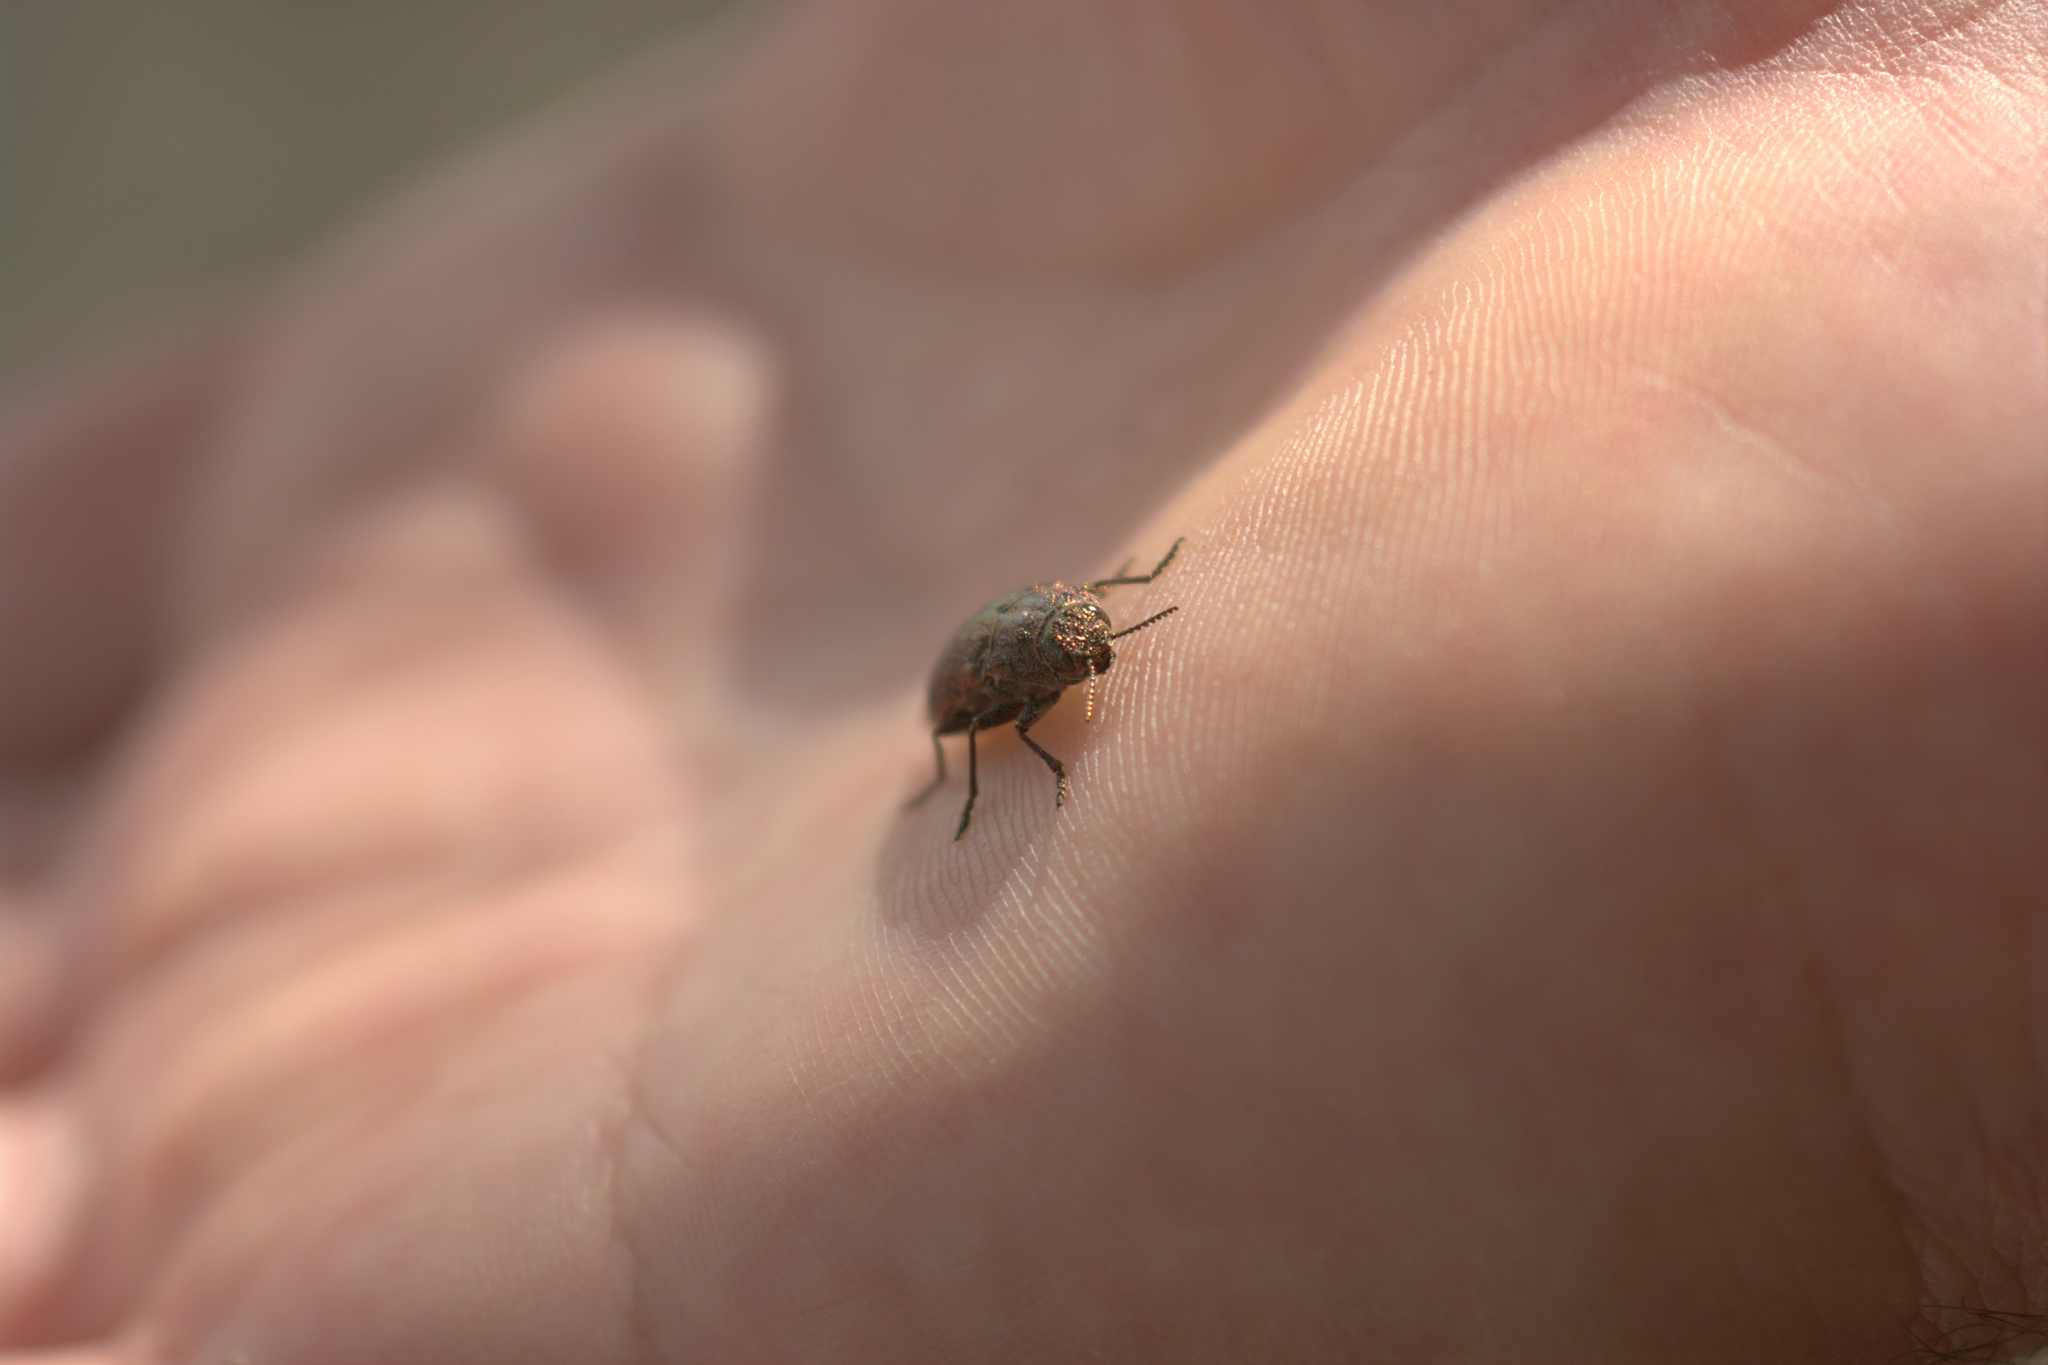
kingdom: Animalia
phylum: Arthropoda
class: Insecta
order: Coleoptera
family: Buprestidae
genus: Dicerca
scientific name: Dicerca tenebrica
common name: Flat-headed poplar borer
